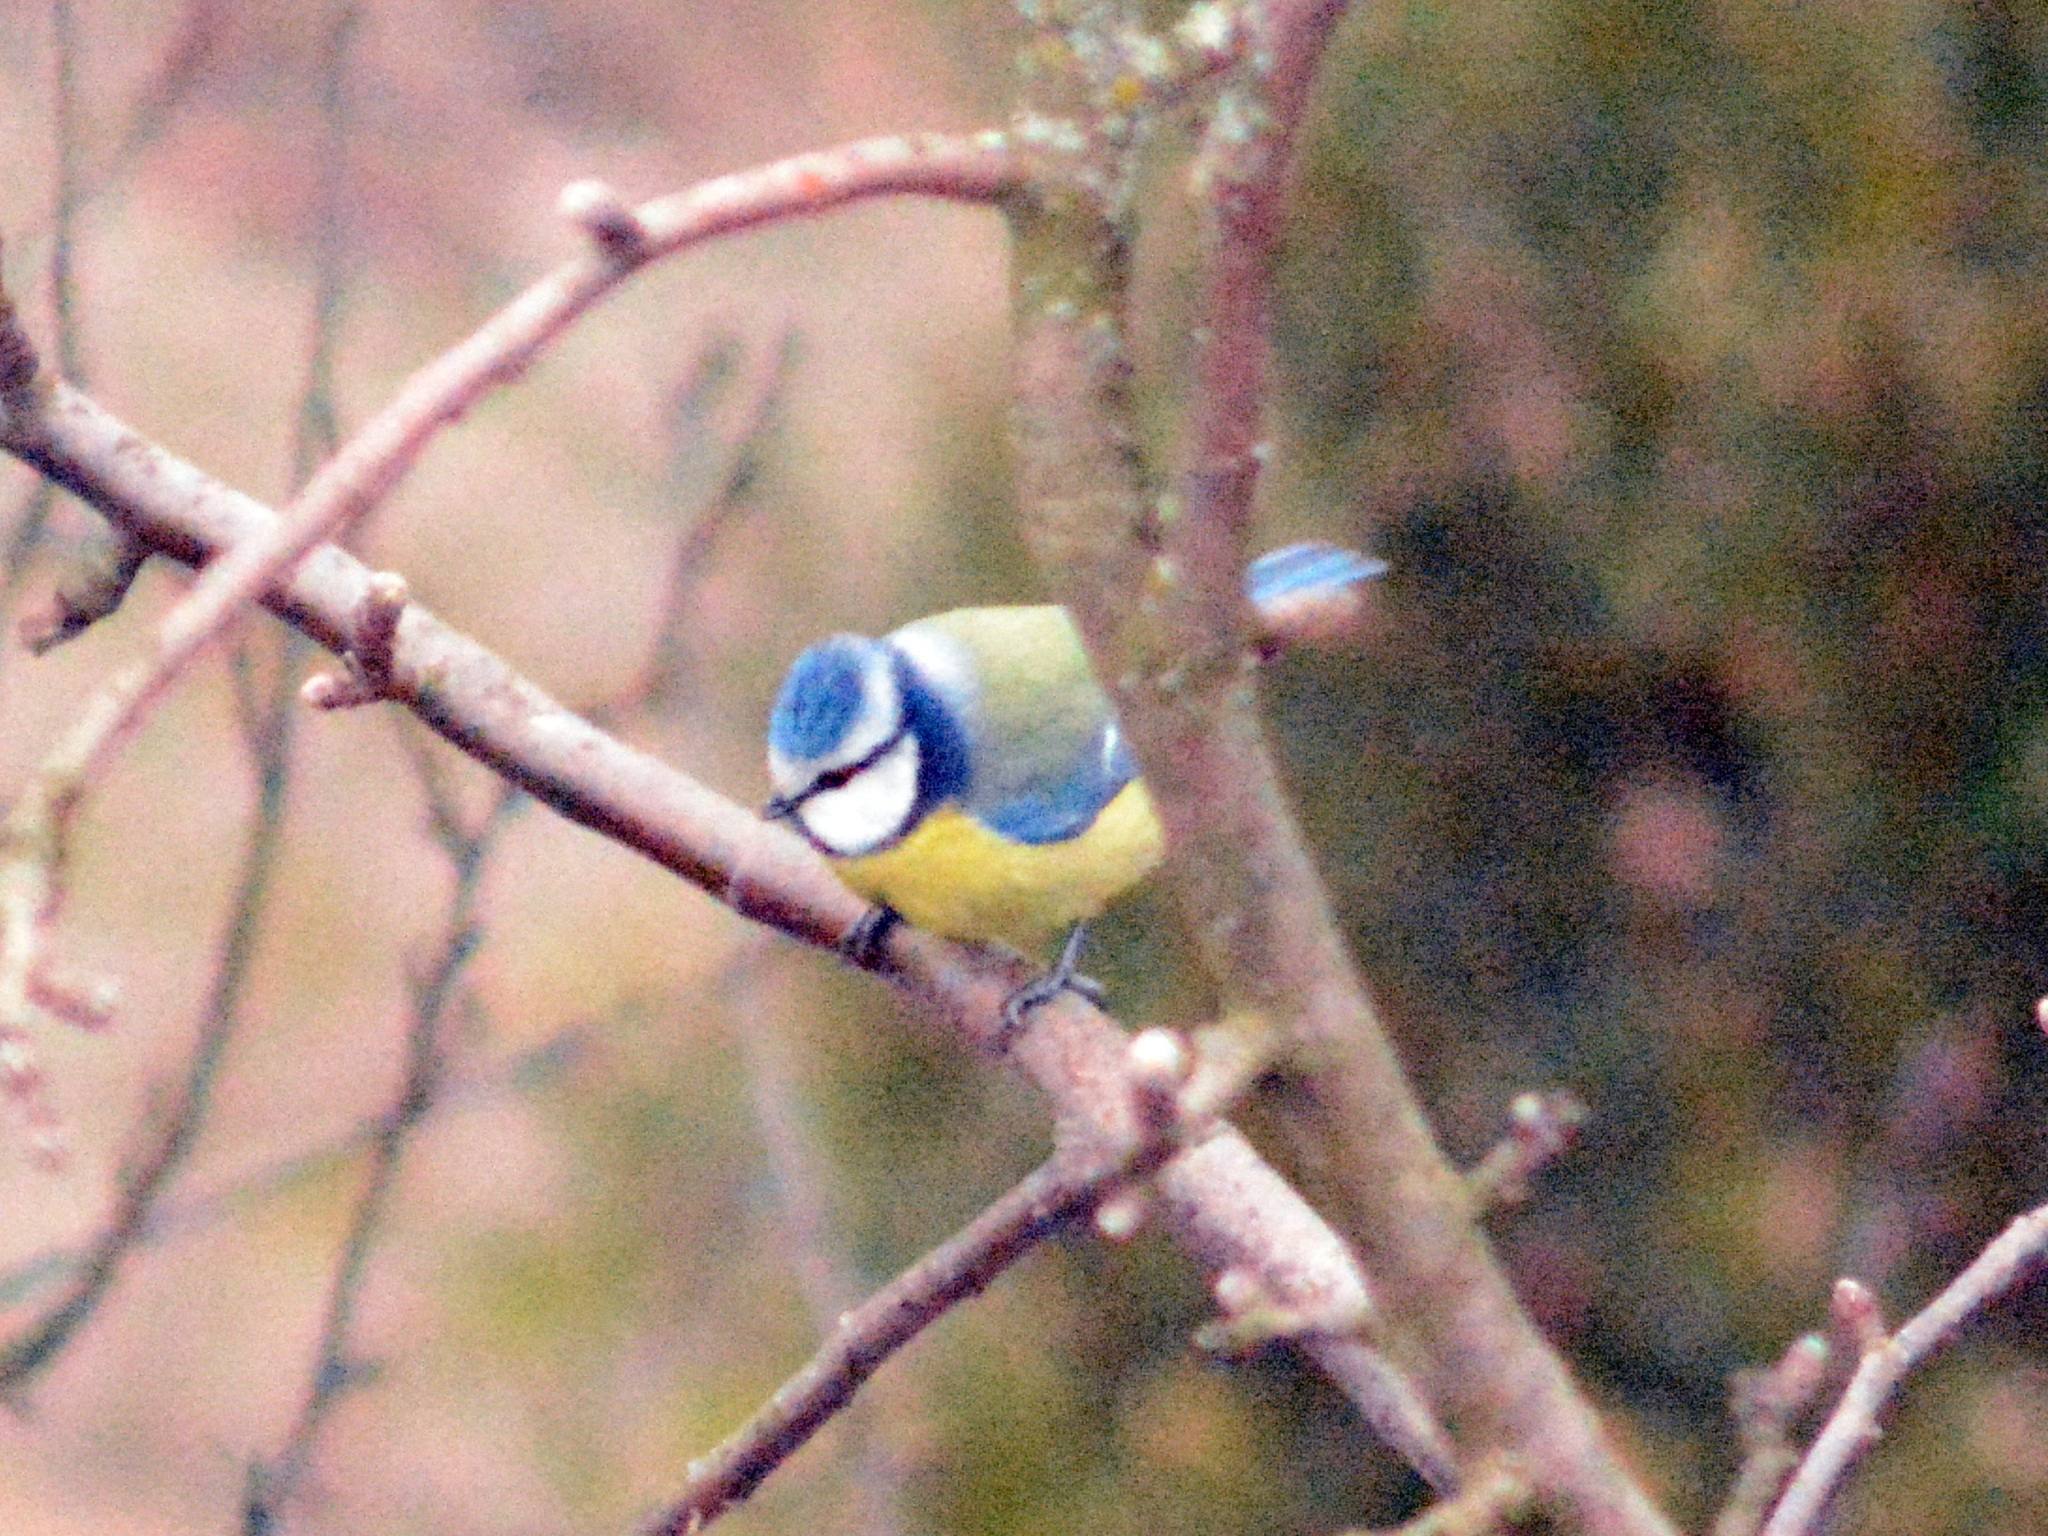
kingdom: Animalia
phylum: Chordata
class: Aves
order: Passeriformes
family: Paridae
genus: Cyanistes
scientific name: Cyanistes caeruleus
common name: Eurasian blue tit
